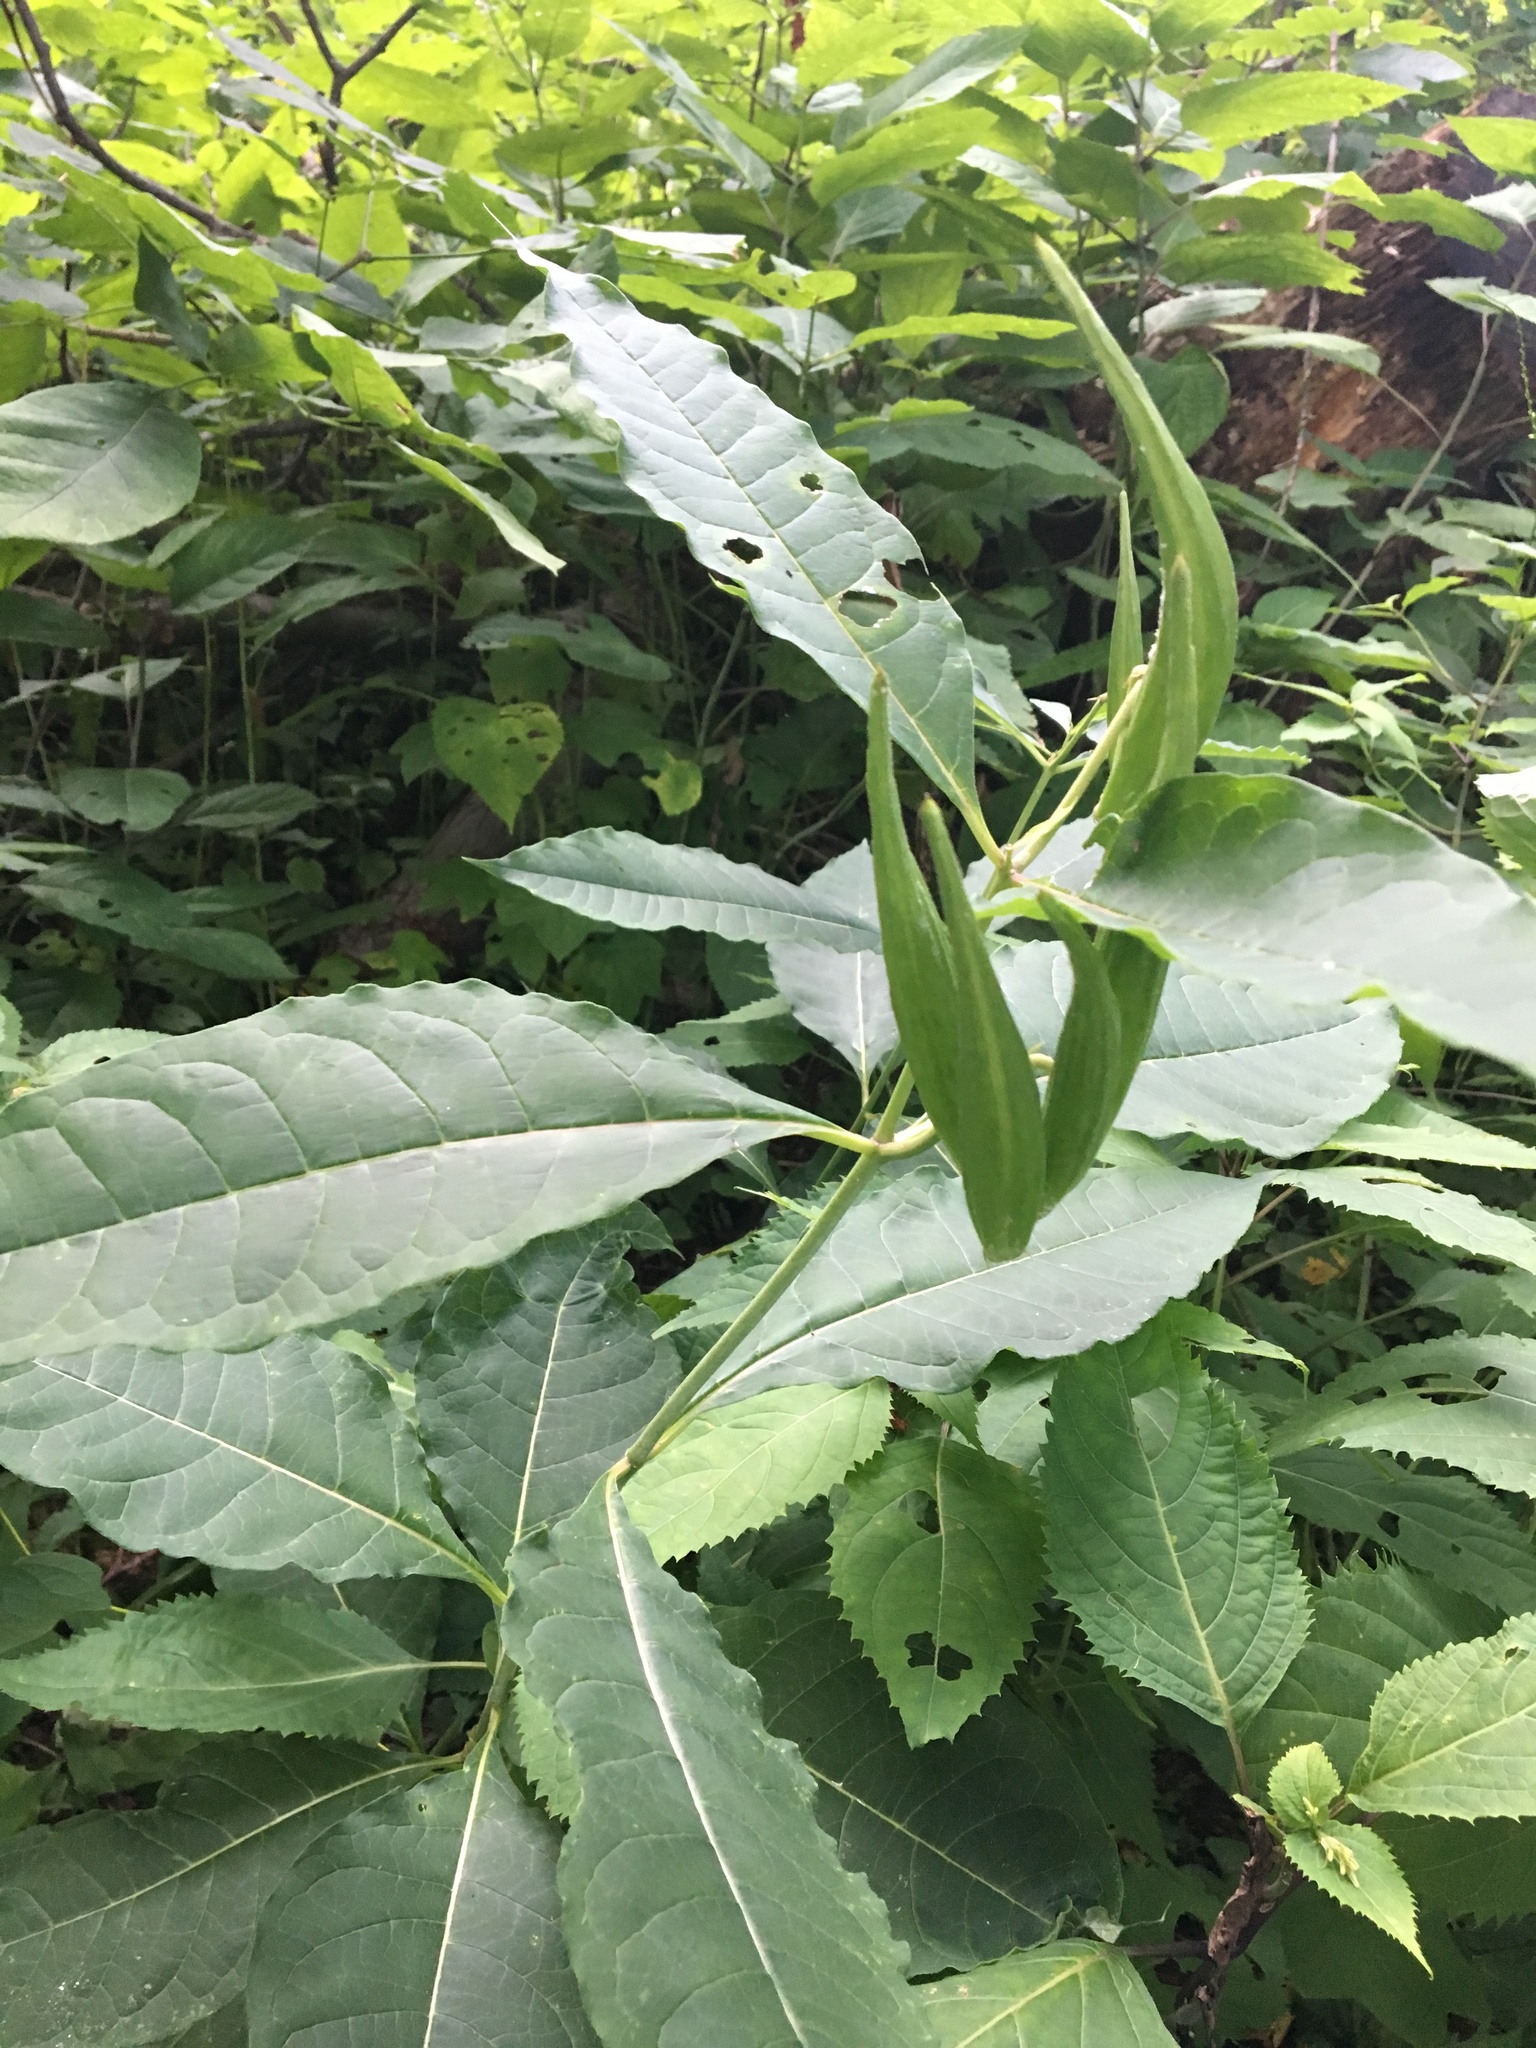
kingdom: Plantae
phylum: Tracheophyta
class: Magnoliopsida
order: Gentianales
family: Apocynaceae
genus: Asclepias
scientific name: Asclepias exaltata
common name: Poke milkweed
